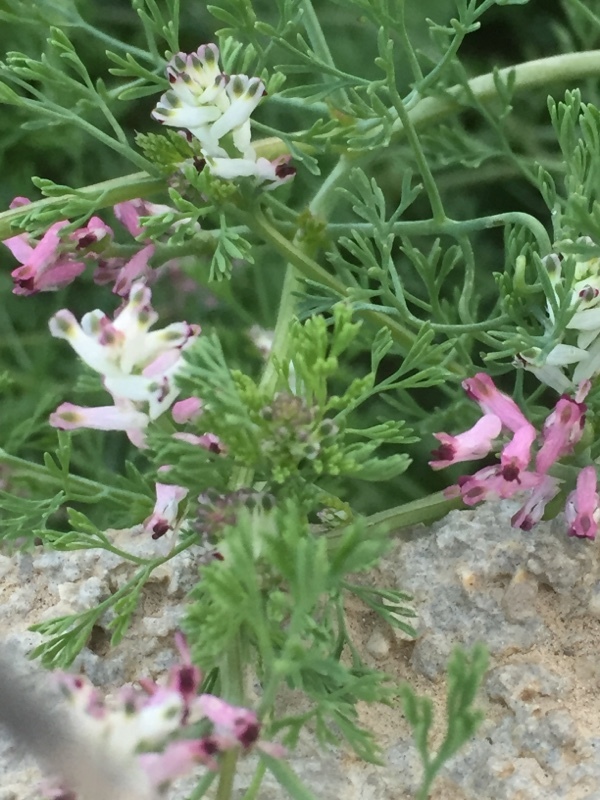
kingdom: Plantae
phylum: Tracheophyta
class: Magnoliopsida
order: Ranunculales
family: Papaveraceae
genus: Fumaria
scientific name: Fumaria parviflora
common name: Fine-leaved fumitory
